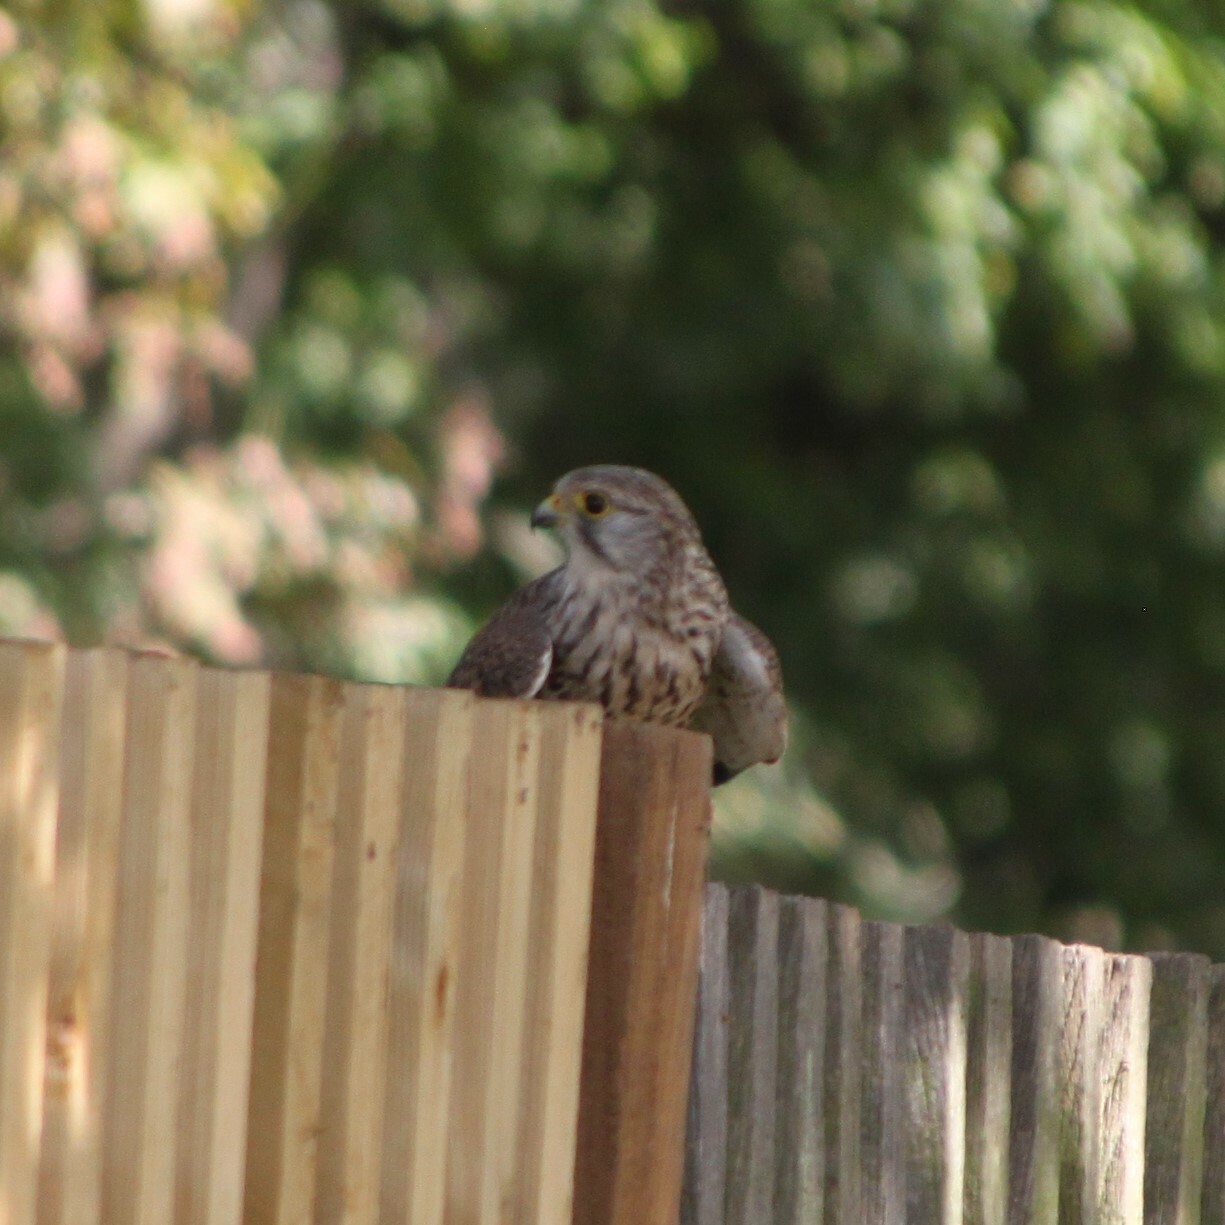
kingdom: Animalia
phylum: Chordata
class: Aves
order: Falconiformes
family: Falconidae
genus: Falco
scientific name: Falco tinnunculus
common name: Common kestrel
